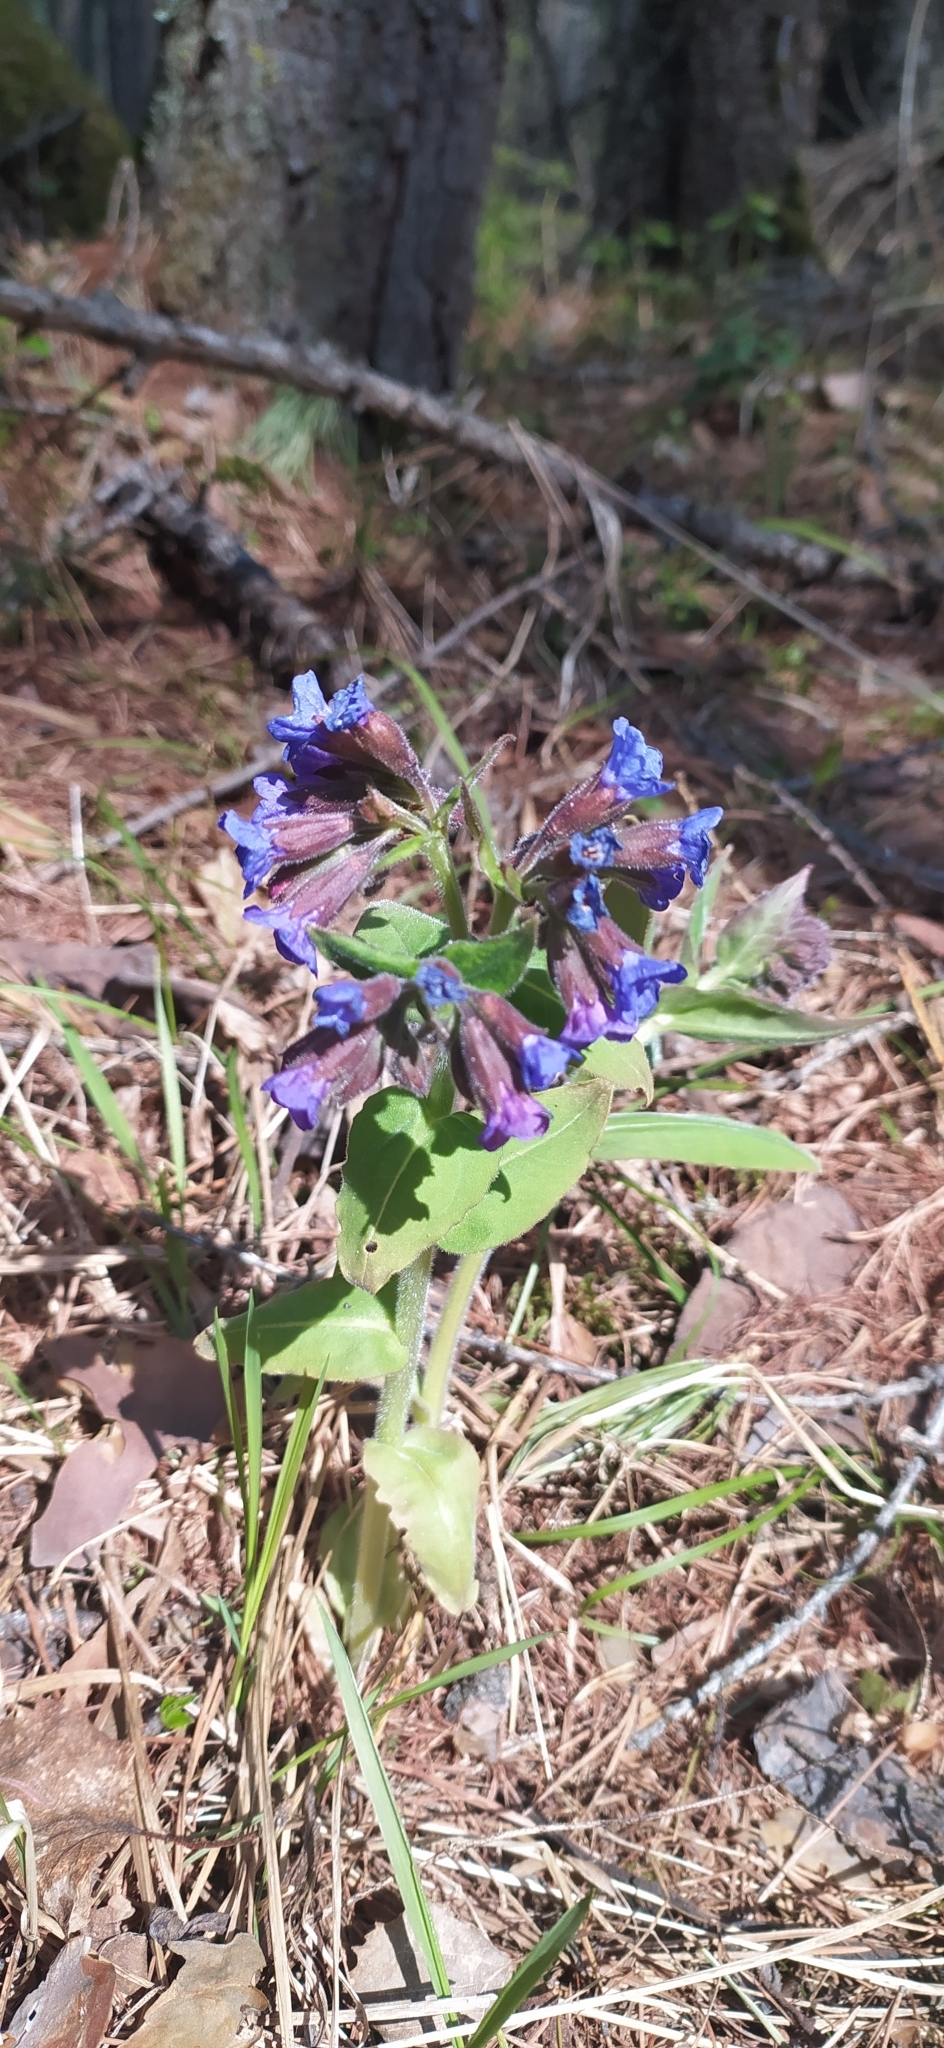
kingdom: Plantae
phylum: Tracheophyta
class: Magnoliopsida
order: Boraginales
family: Boraginaceae
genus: Pulmonaria
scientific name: Pulmonaria mollis
